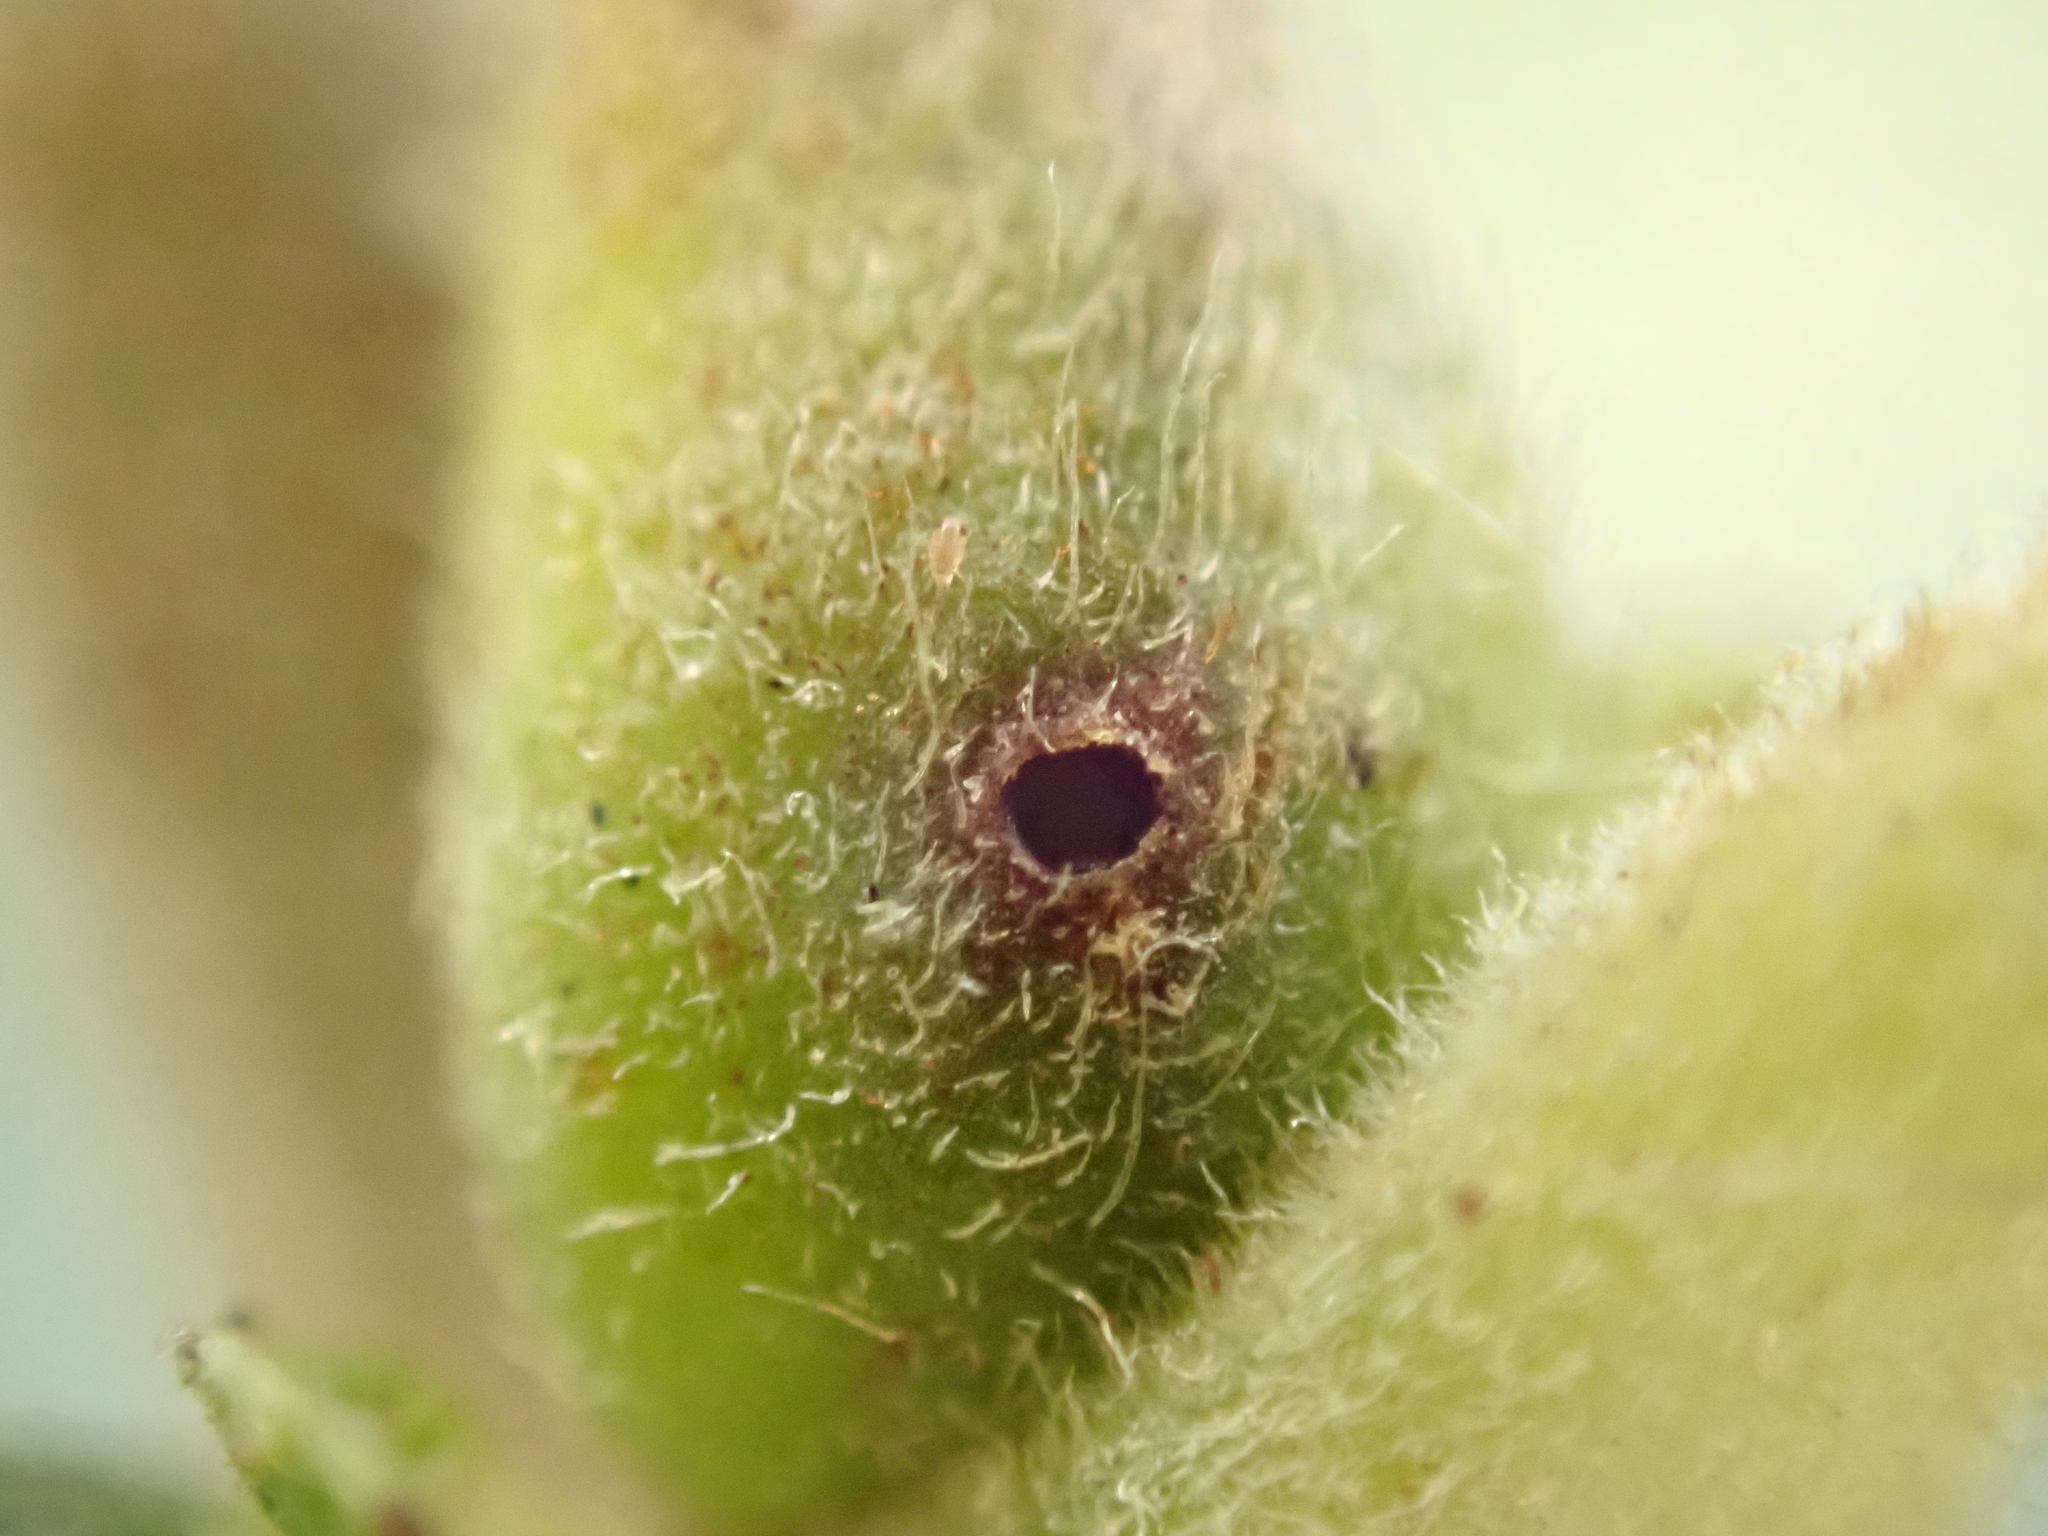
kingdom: Animalia
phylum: Arthropoda
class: Insecta
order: Hymenoptera
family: Tenthredinidae
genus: Euura
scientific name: Euura mucronata
